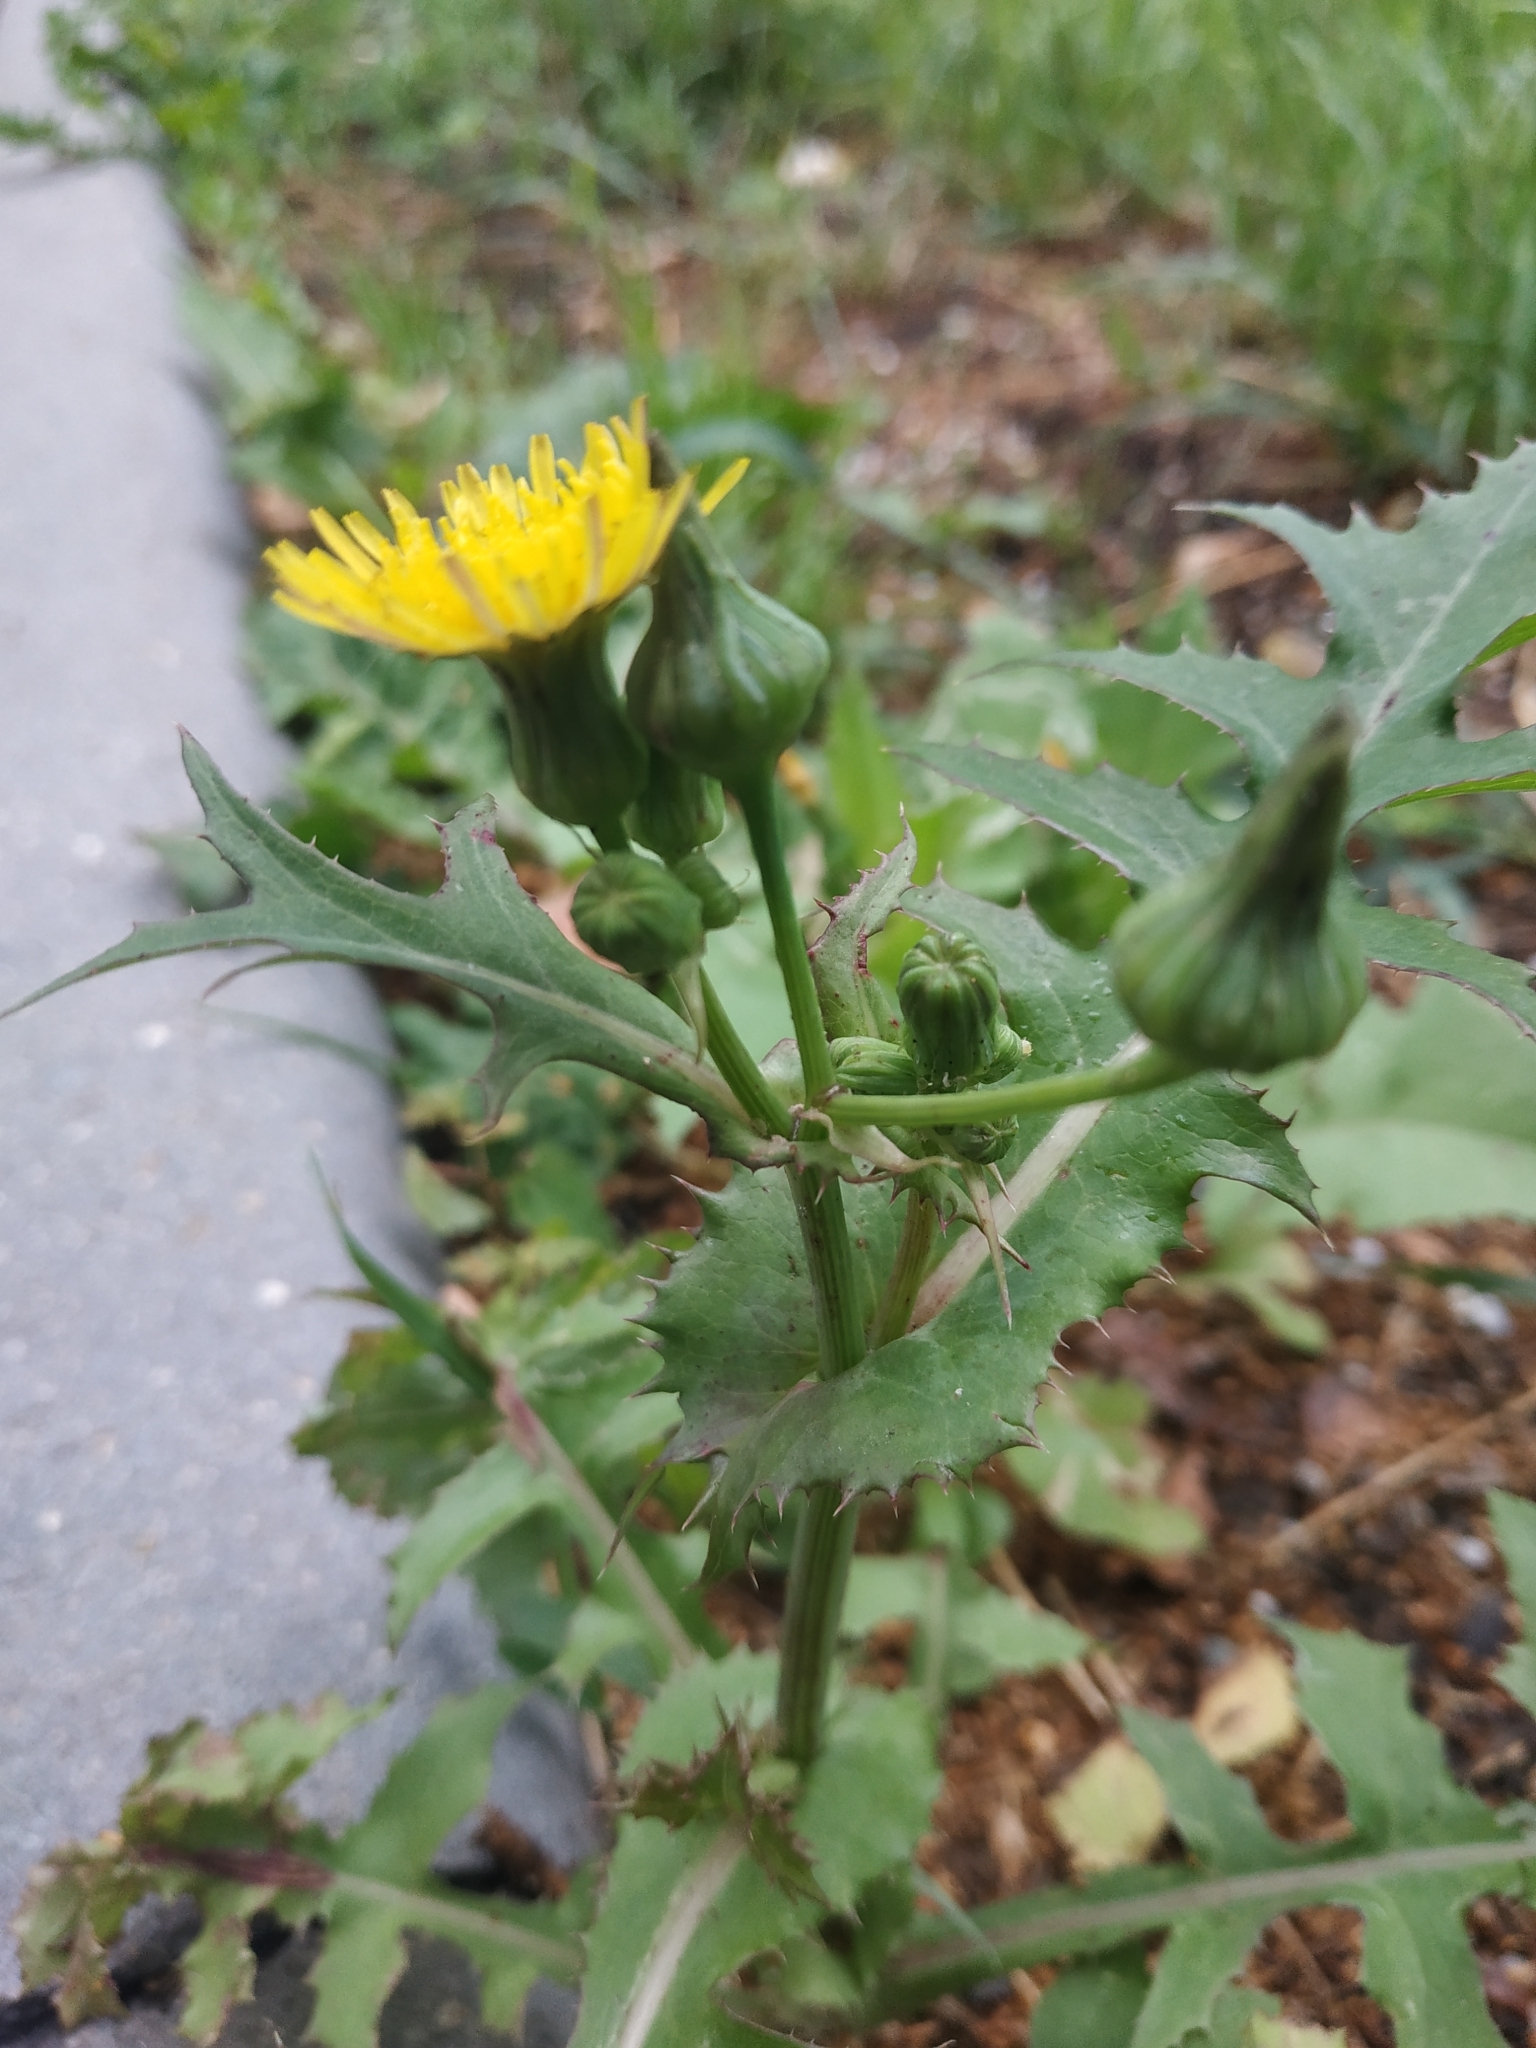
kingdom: Plantae
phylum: Tracheophyta
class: Magnoliopsida
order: Asterales
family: Asteraceae
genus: Sonchus
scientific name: Sonchus oleraceus
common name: Common sowthistle
